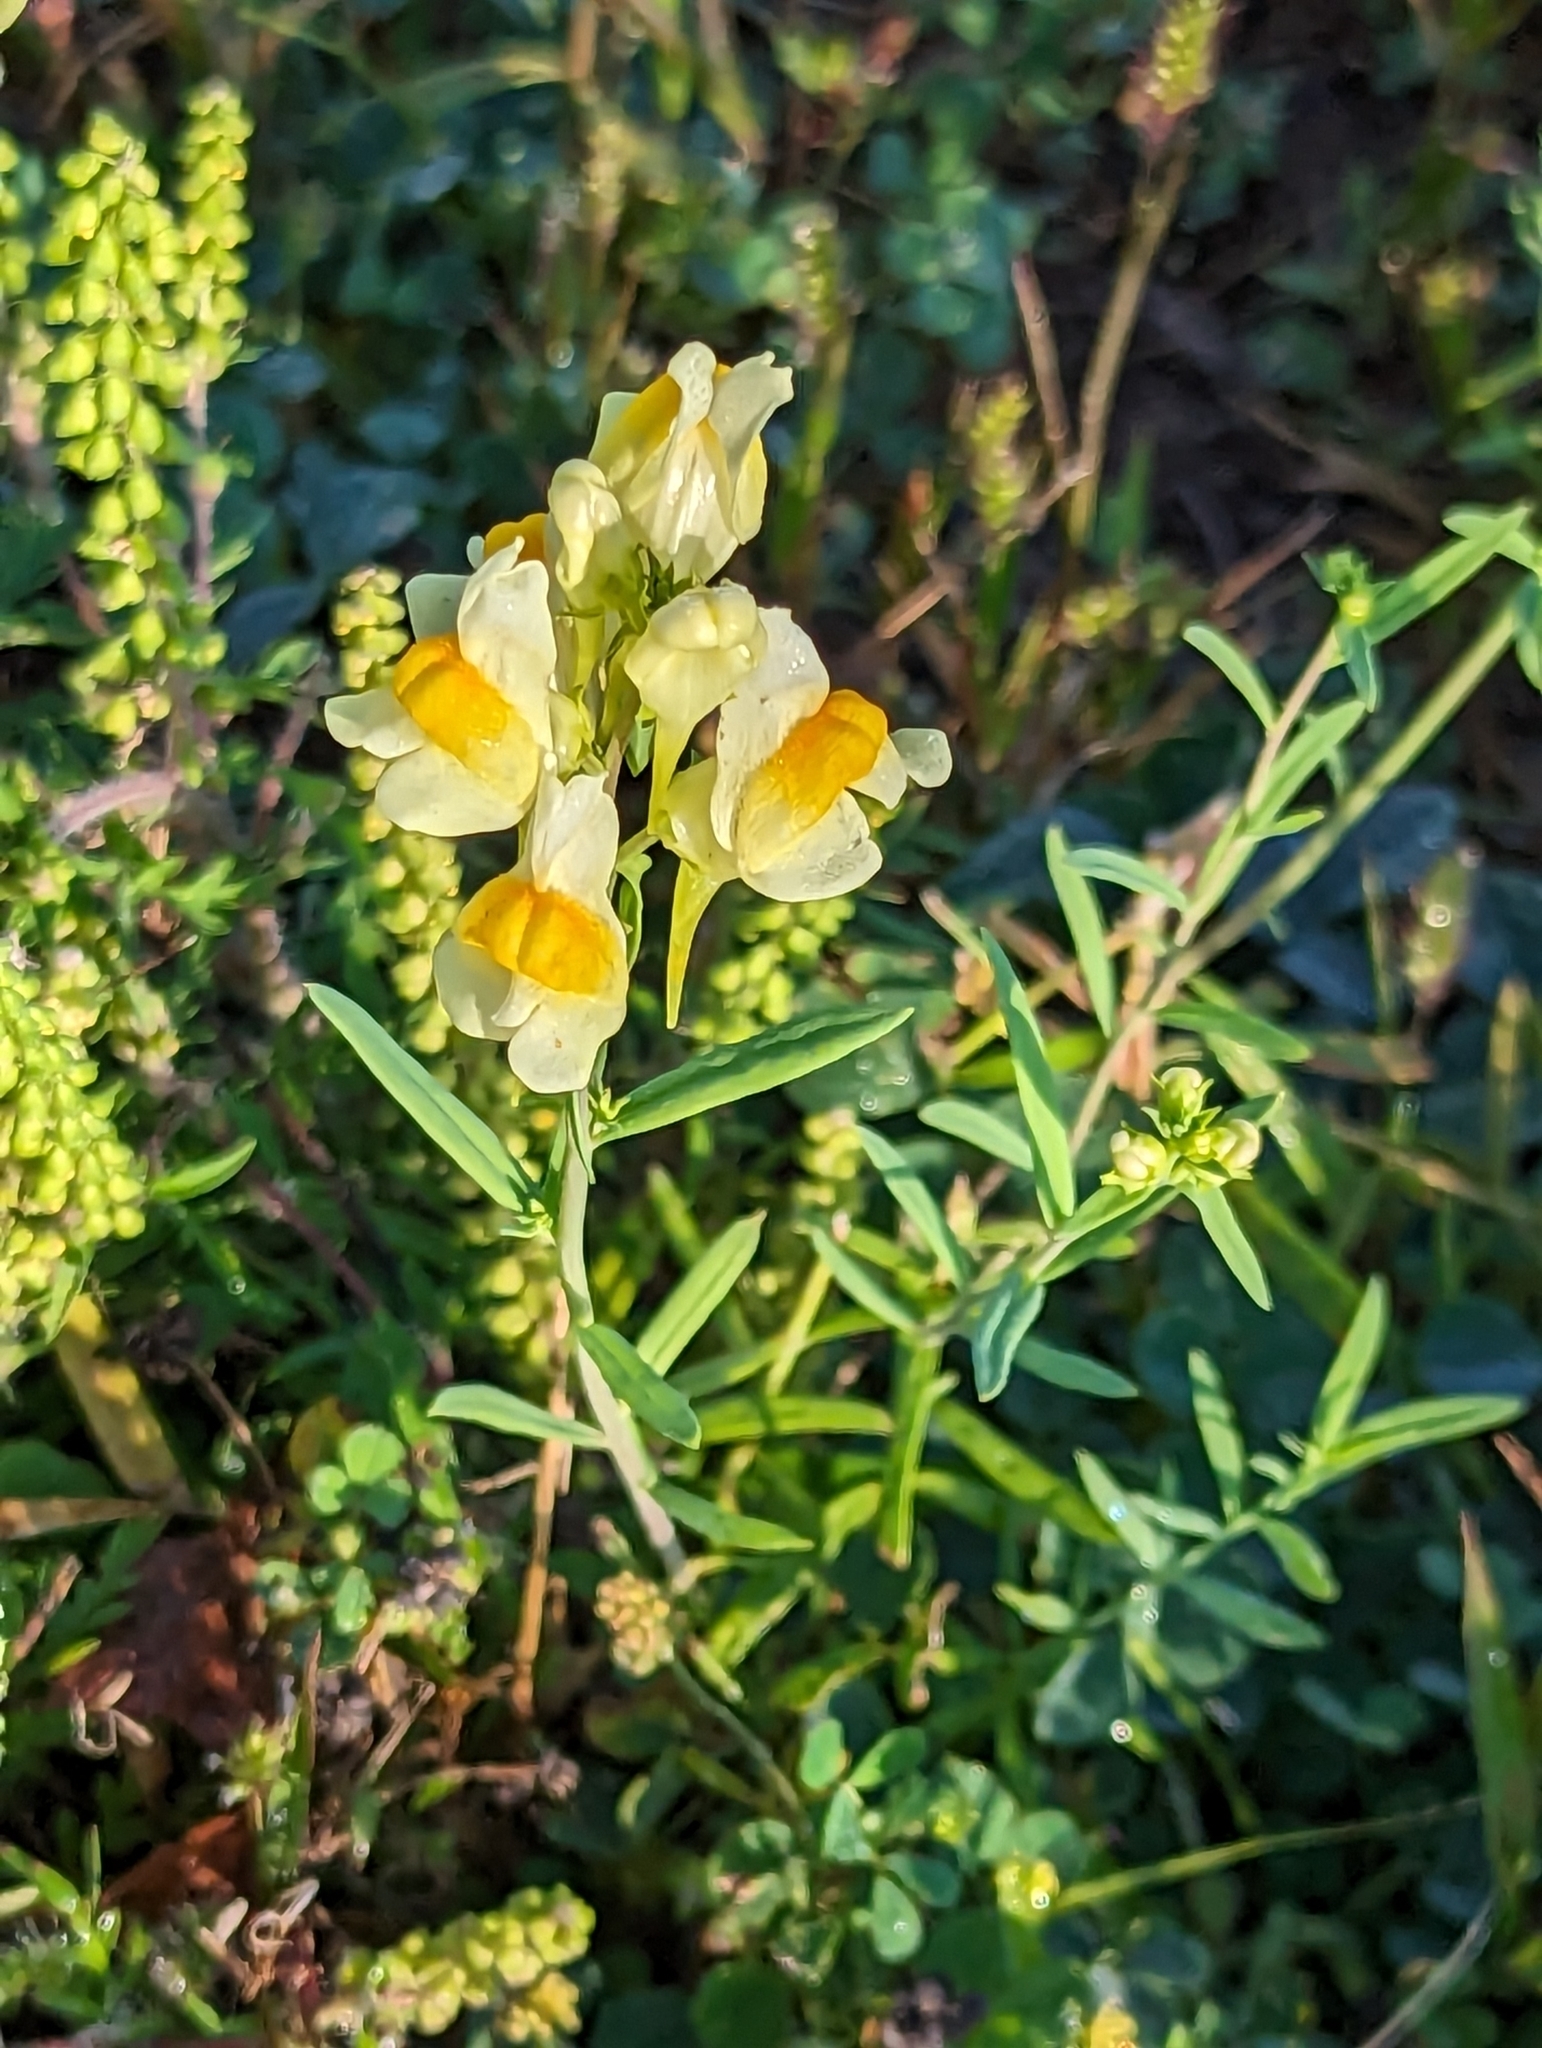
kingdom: Plantae
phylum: Tracheophyta
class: Magnoliopsida
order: Lamiales
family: Plantaginaceae
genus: Linaria
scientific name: Linaria vulgaris
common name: Butter and eggs
